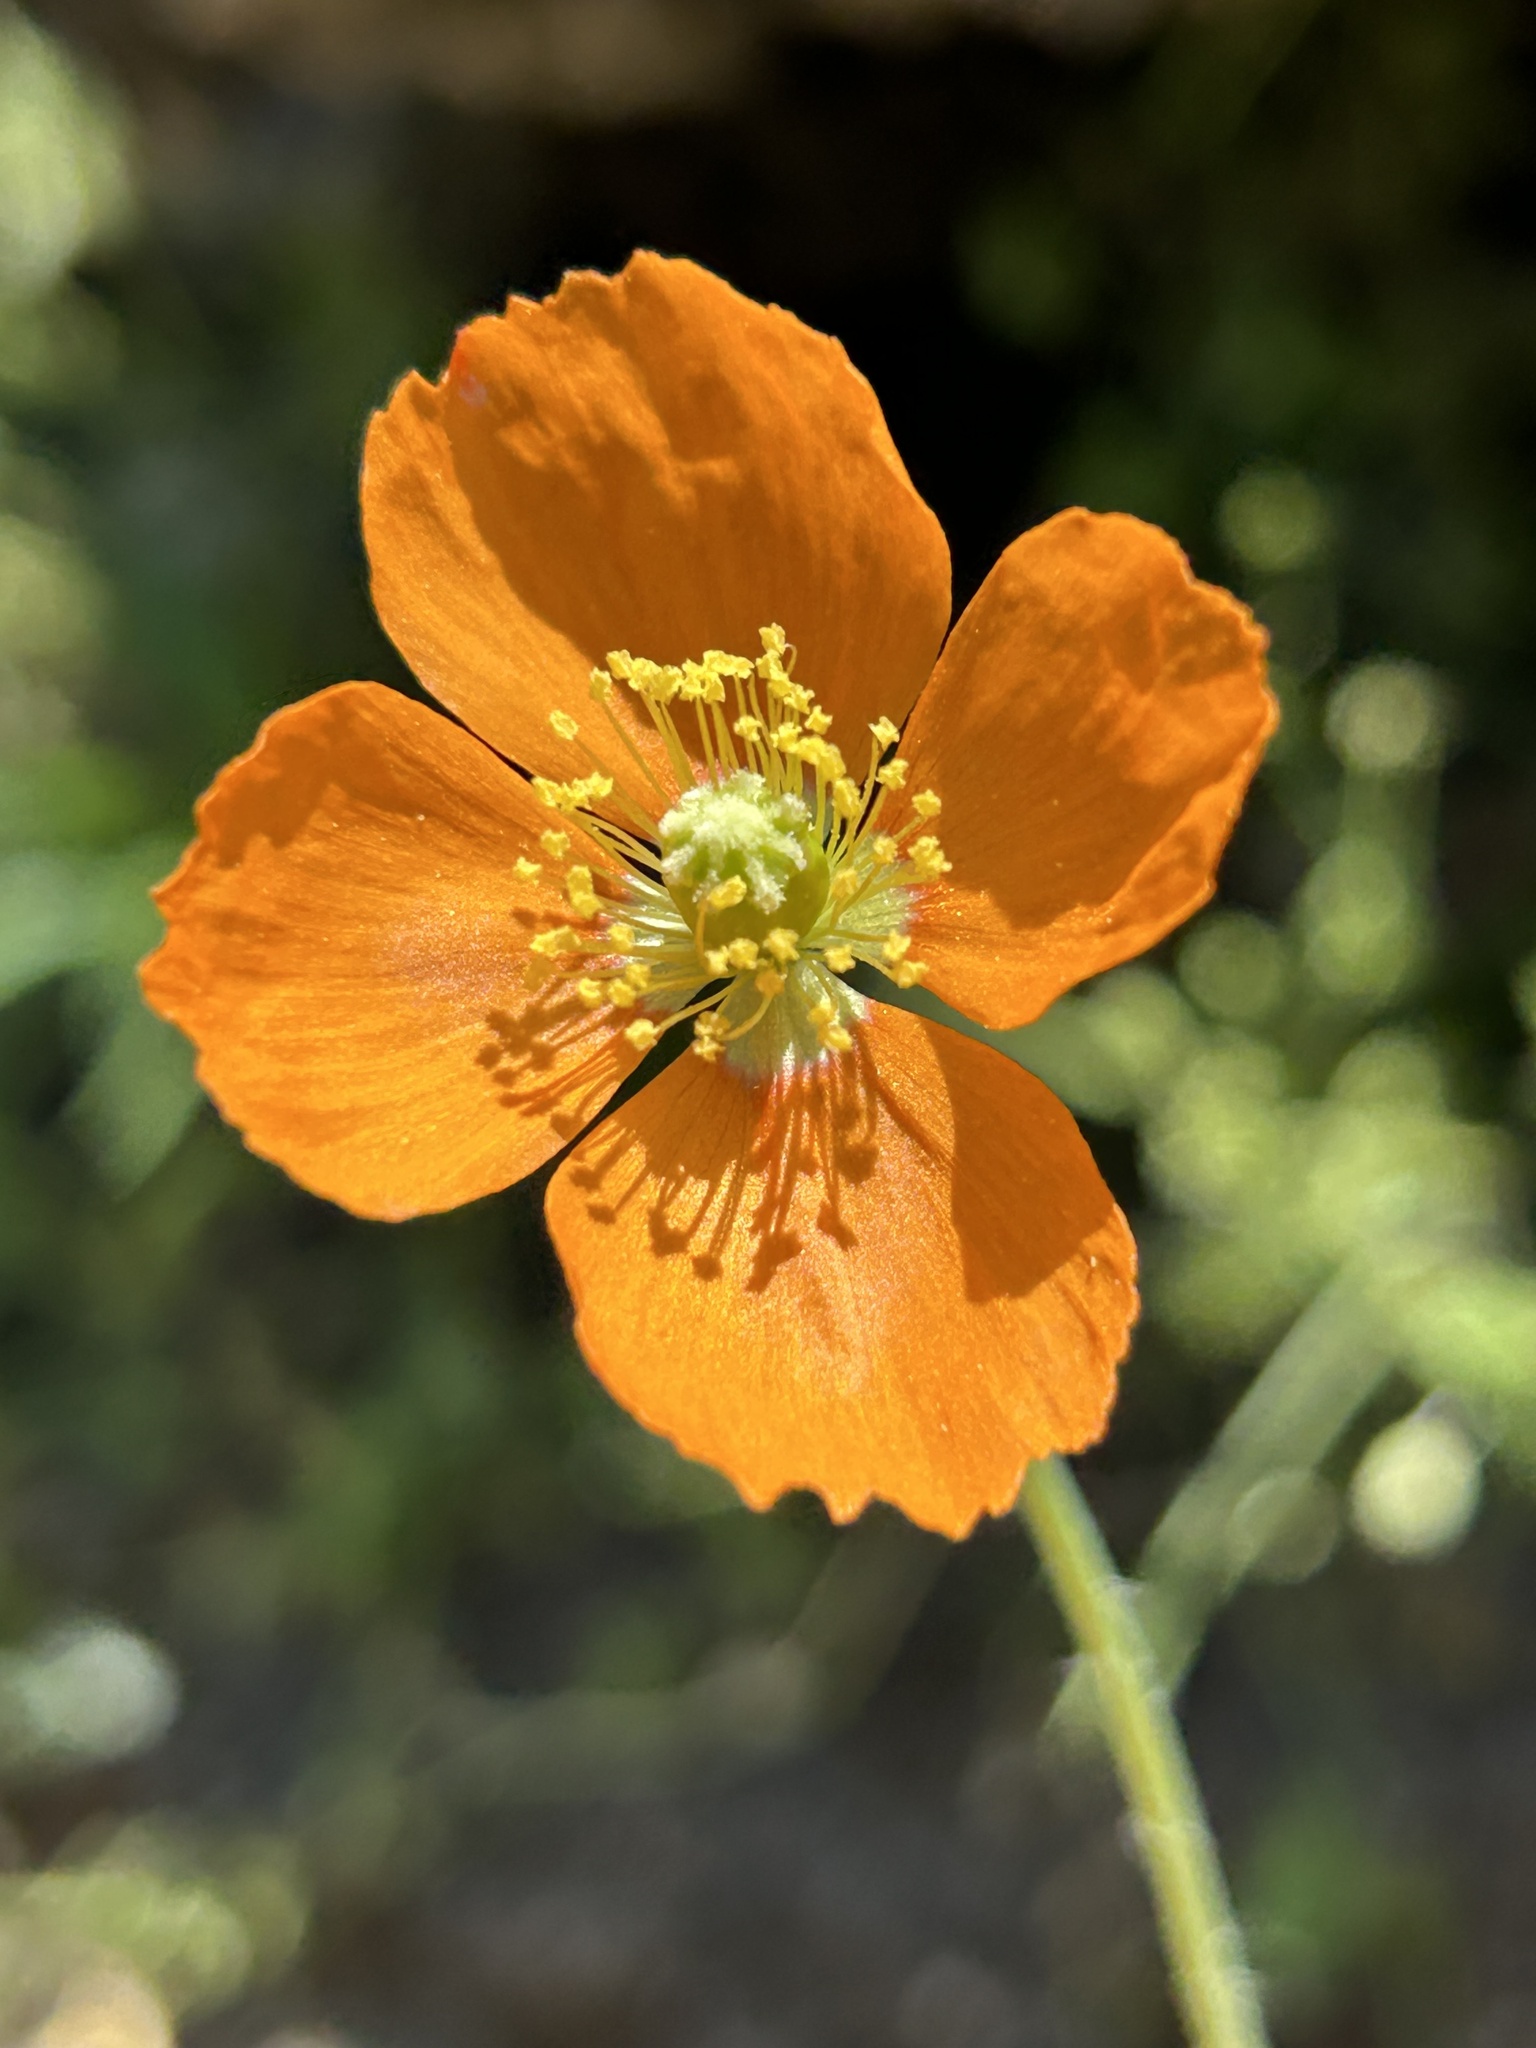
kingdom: Plantae
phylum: Tracheophyta
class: Magnoliopsida
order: Ranunculales
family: Papaveraceae
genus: Papaver
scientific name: Papaver californicum
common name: Fire poppy
